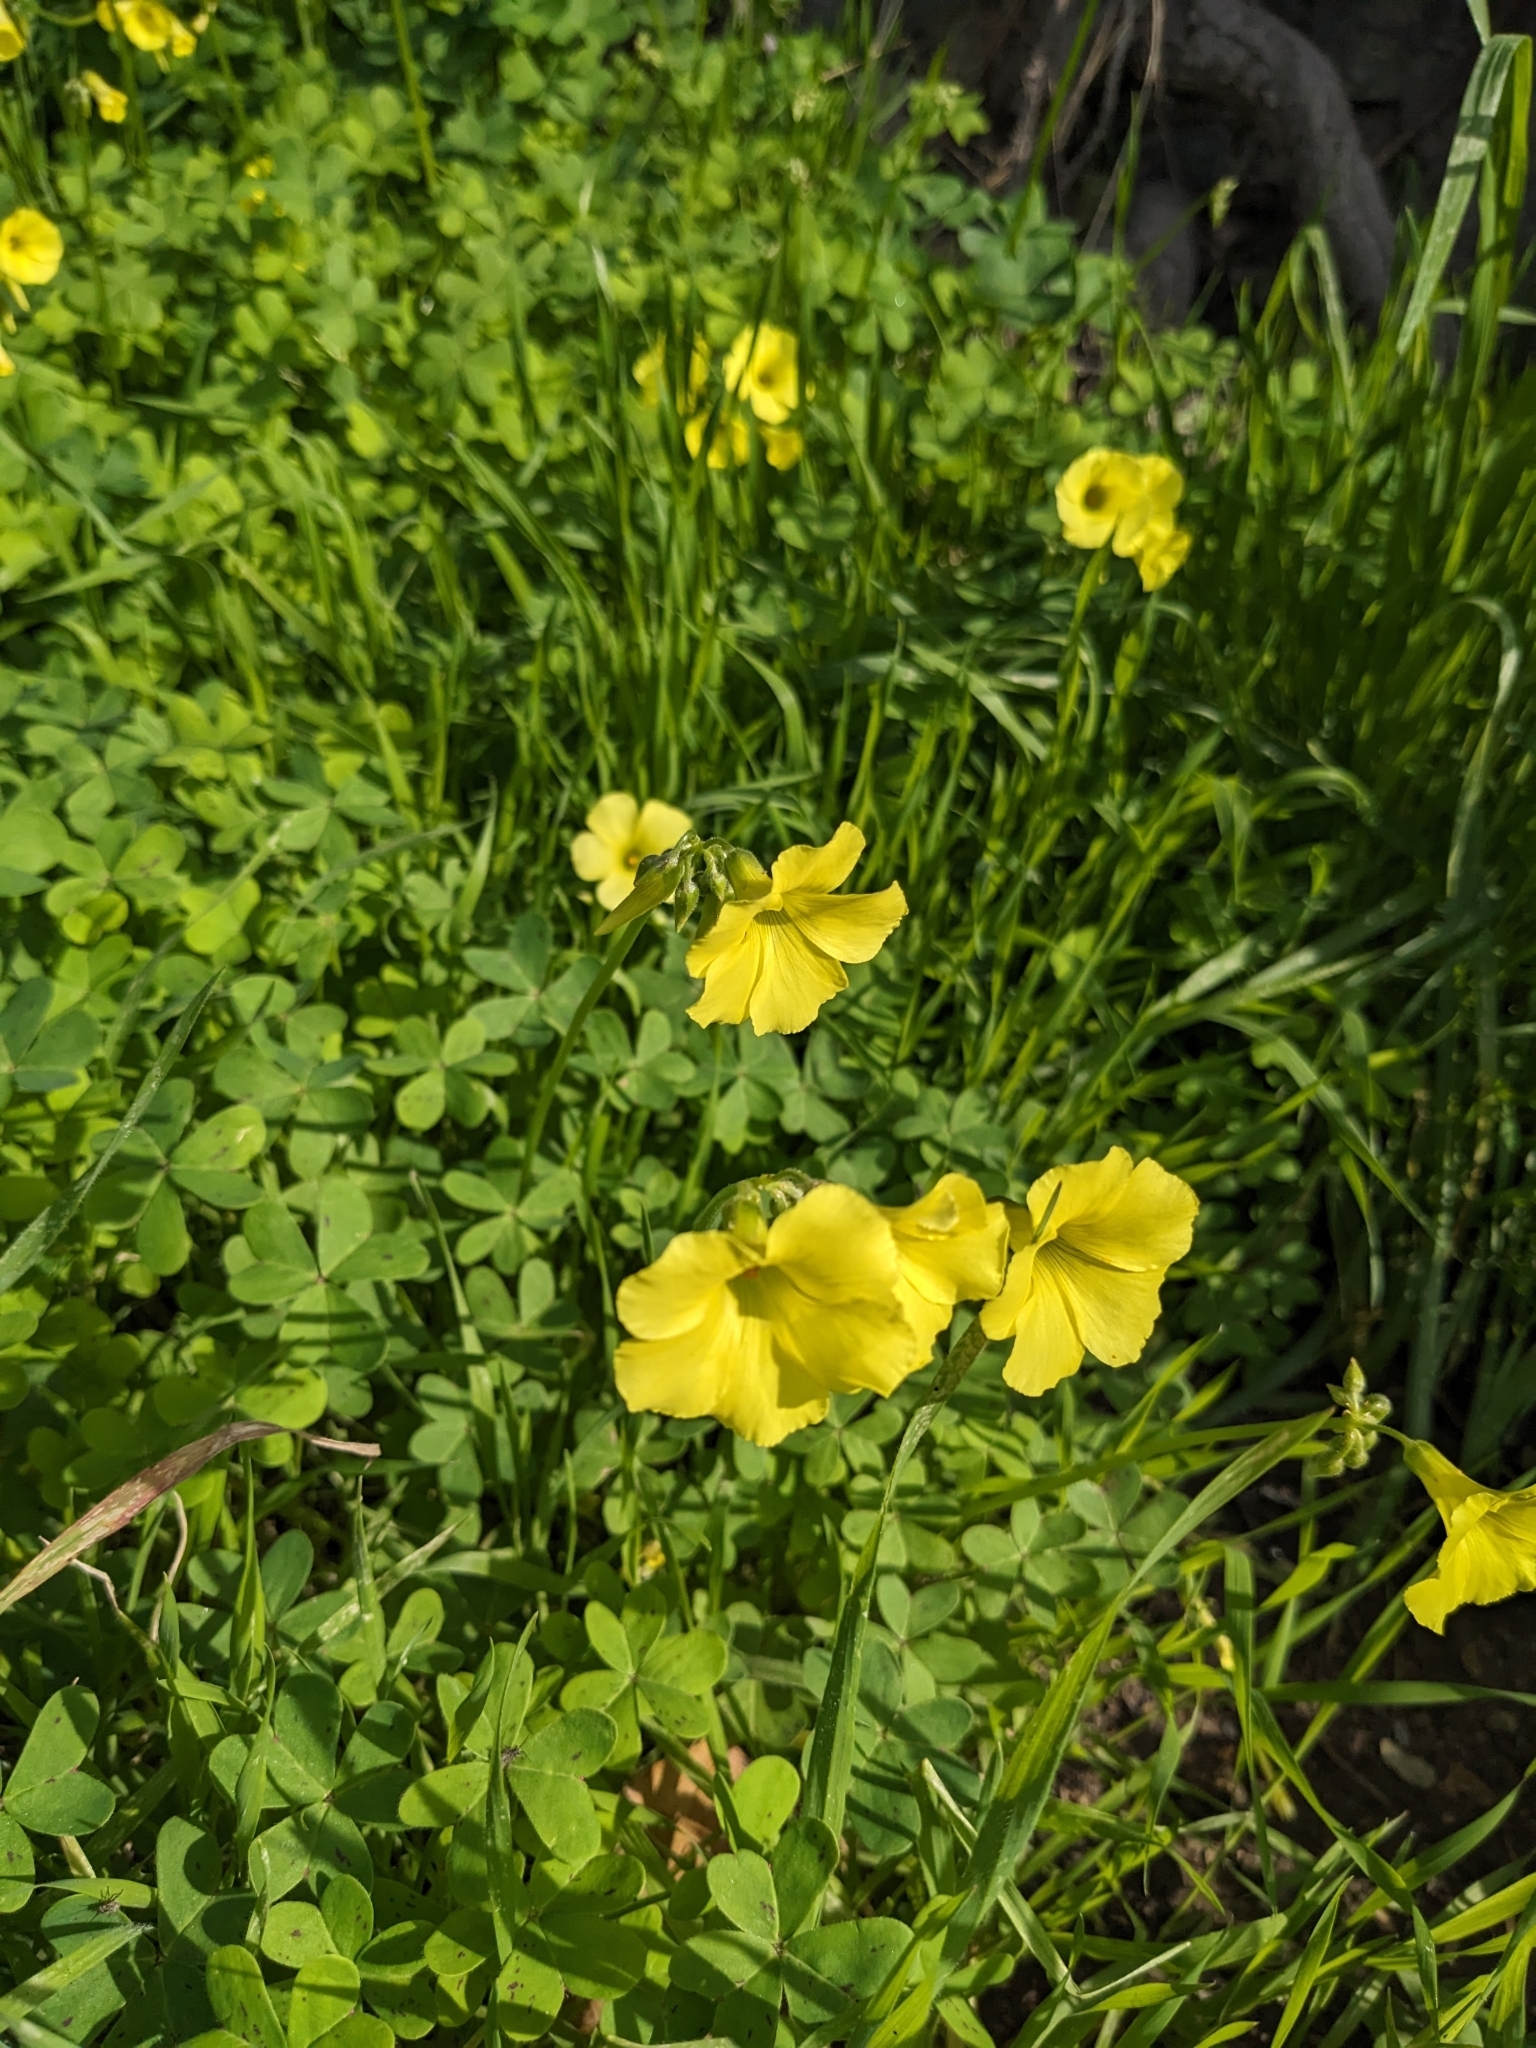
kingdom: Plantae
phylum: Tracheophyta
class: Magnoliopsida
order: Oxalidales
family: Oxalidaceae
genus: Oxalis
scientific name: Oxalis pes-caprae
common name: Bermuda-buttercup
